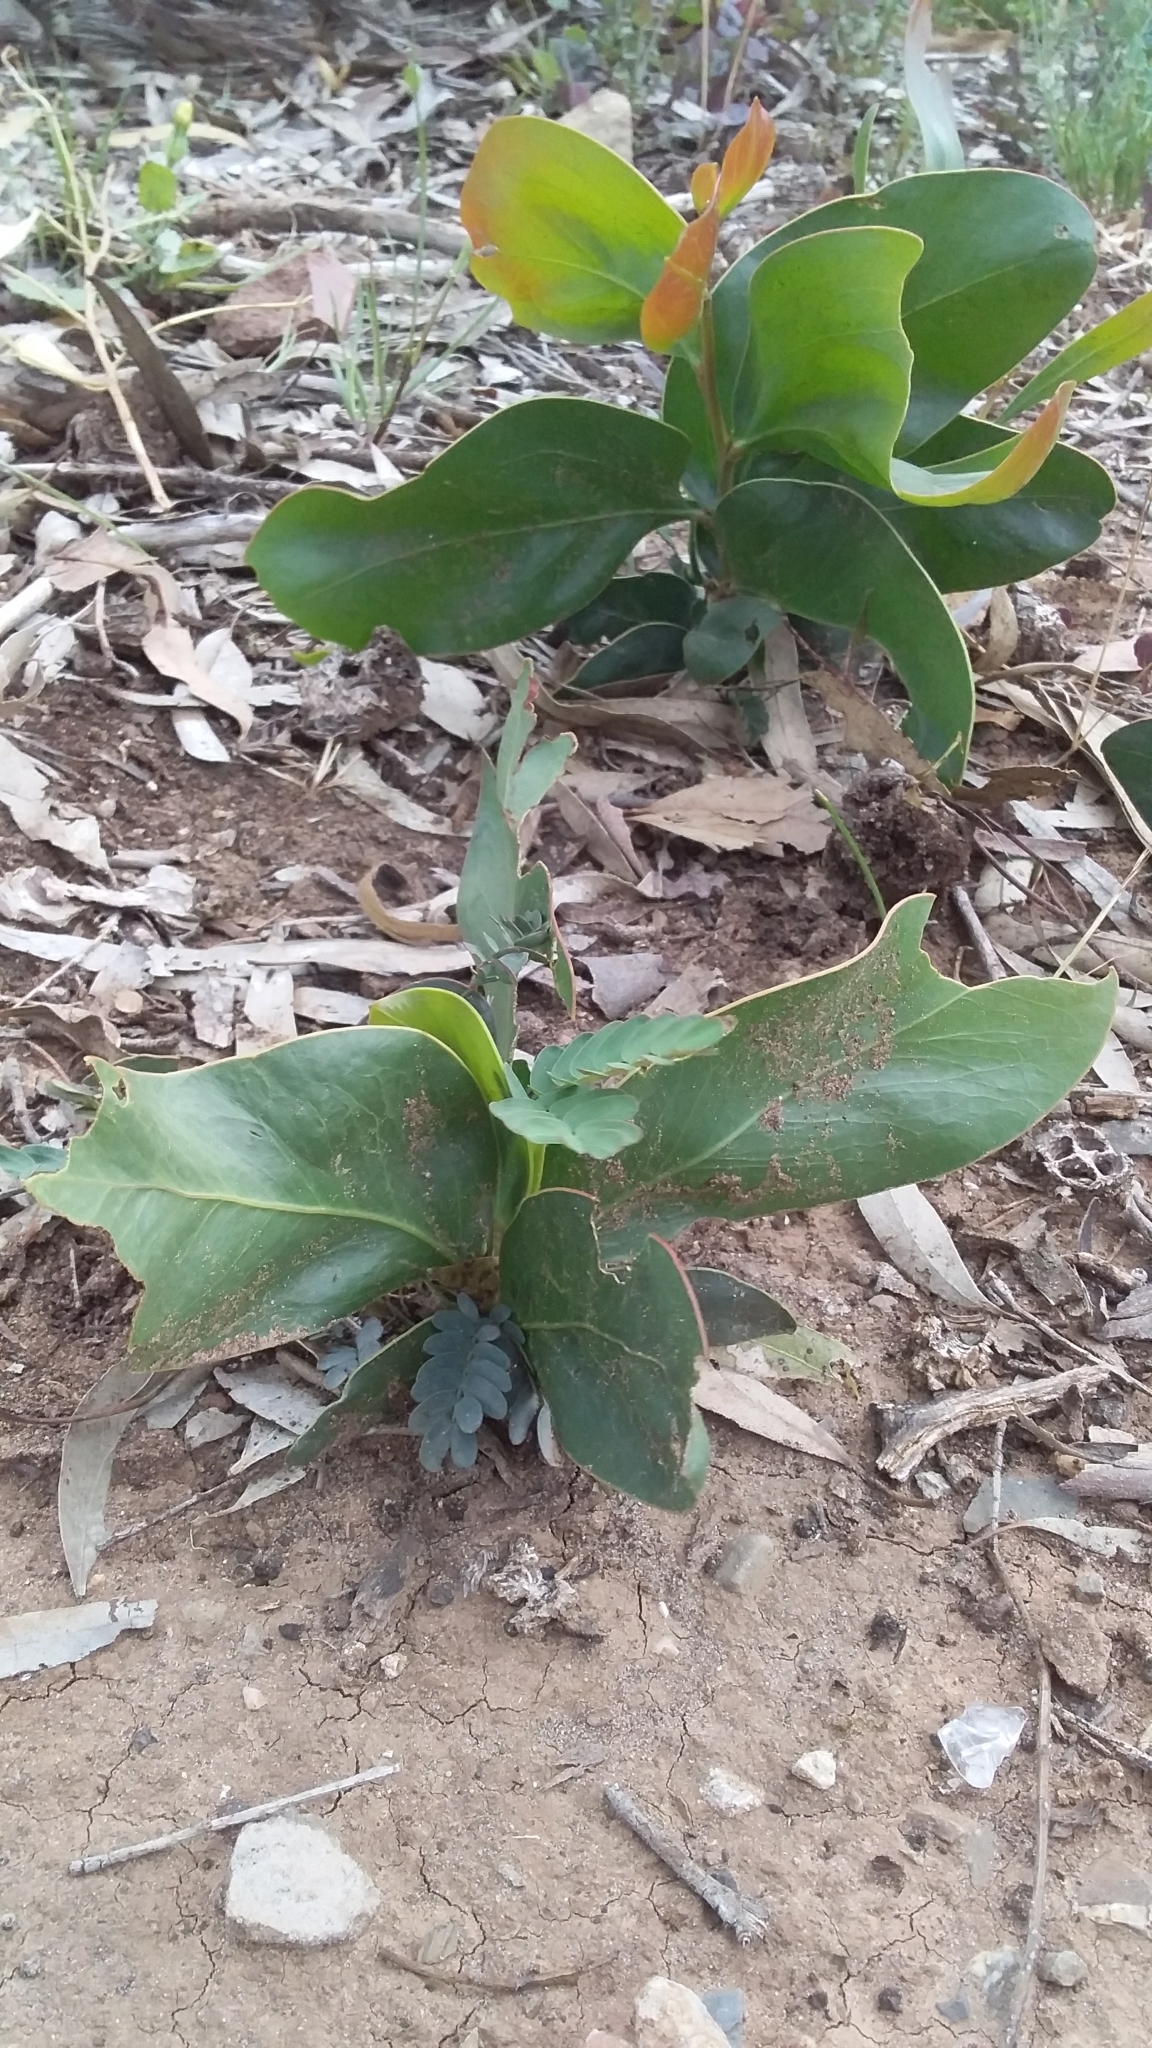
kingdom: Plantae
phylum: Tracheophyta
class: Magnoliopsida
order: Fabales
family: Fabaceae
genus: Acacia
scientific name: Acacia pycnantha
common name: Golden wattle
